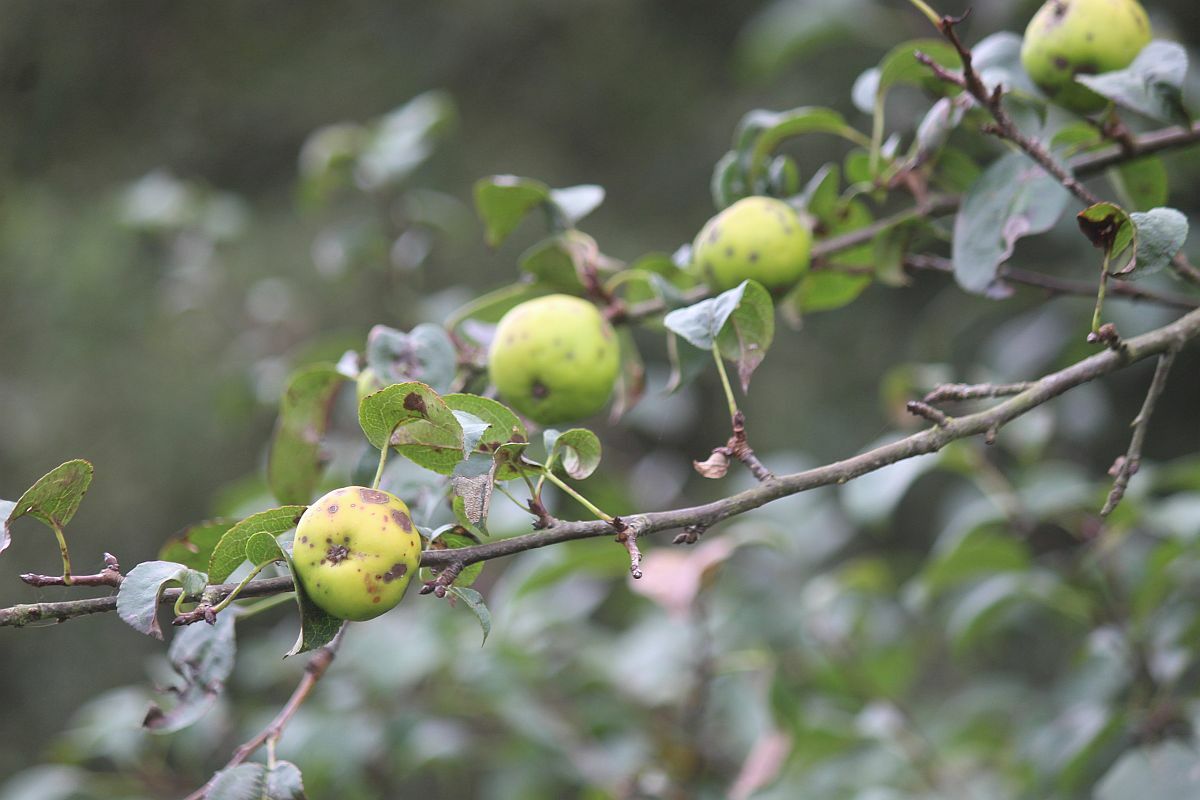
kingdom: Plantae
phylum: Tracheophyta
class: Magnoliopsida
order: Rosales
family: Rosaceae
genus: Malus
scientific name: Malus domestica
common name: Apple
